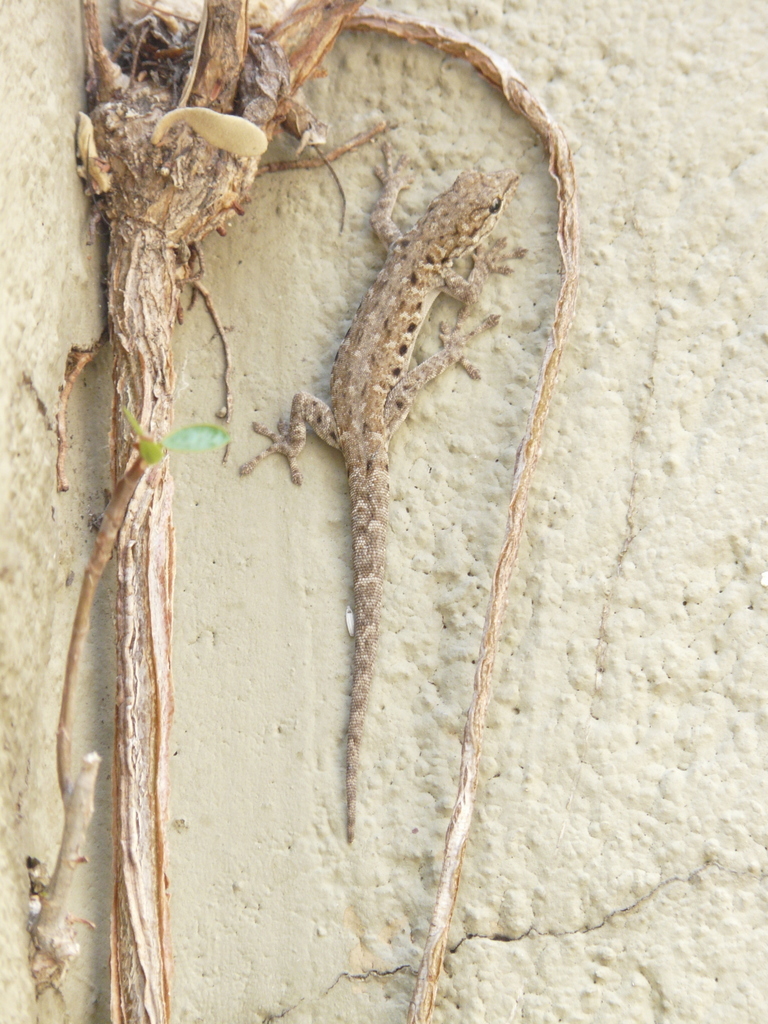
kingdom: Animalia
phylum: Chordata
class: Squamata
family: Gekkonidae
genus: Lygodactylus
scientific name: Lygodactylus stevensoni
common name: Stevenson's dwarf gecko
